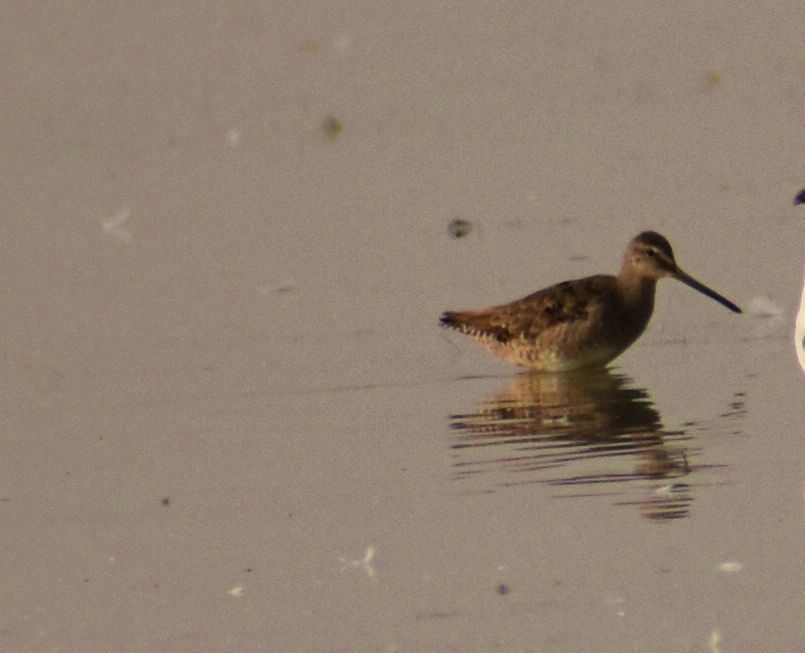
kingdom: Animalia
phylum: Chordata
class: Aves
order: Charadriiformes
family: Scolopacidae
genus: Limnodromus
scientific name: Limnodromus scolopaceus
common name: Long-billed dowitcher
